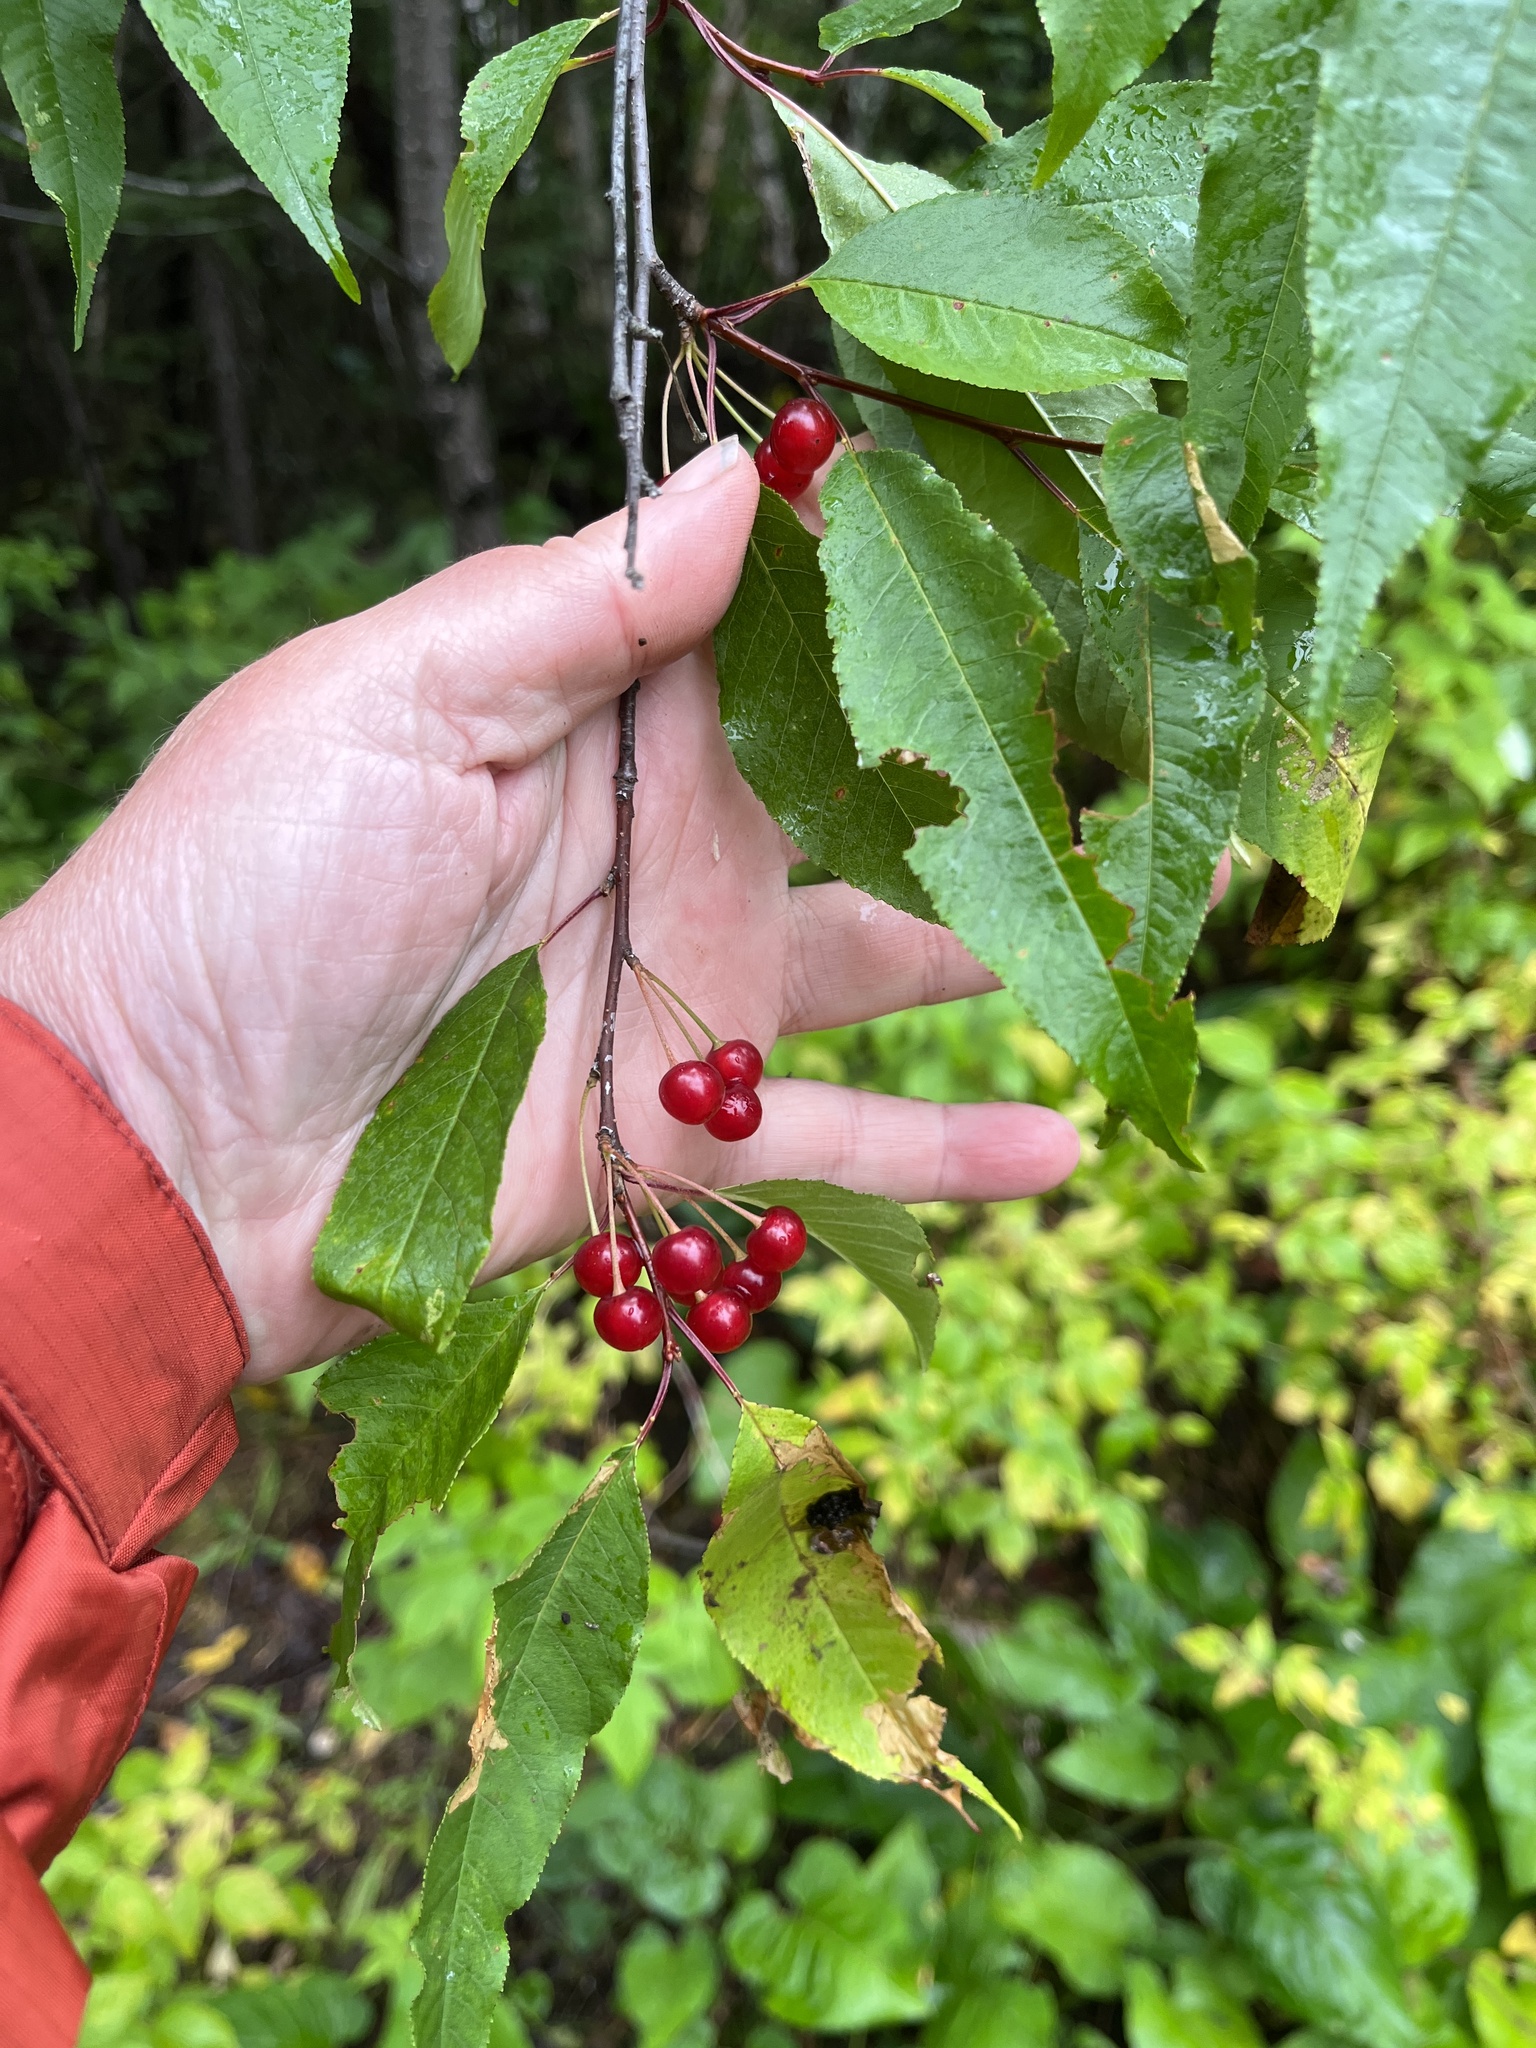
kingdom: Plantae
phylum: Tracheophyta
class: Magnoliopsida
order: Rosales
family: Rosaceae
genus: Prunus
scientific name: Prunus pensylvanica
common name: Pin cherry
